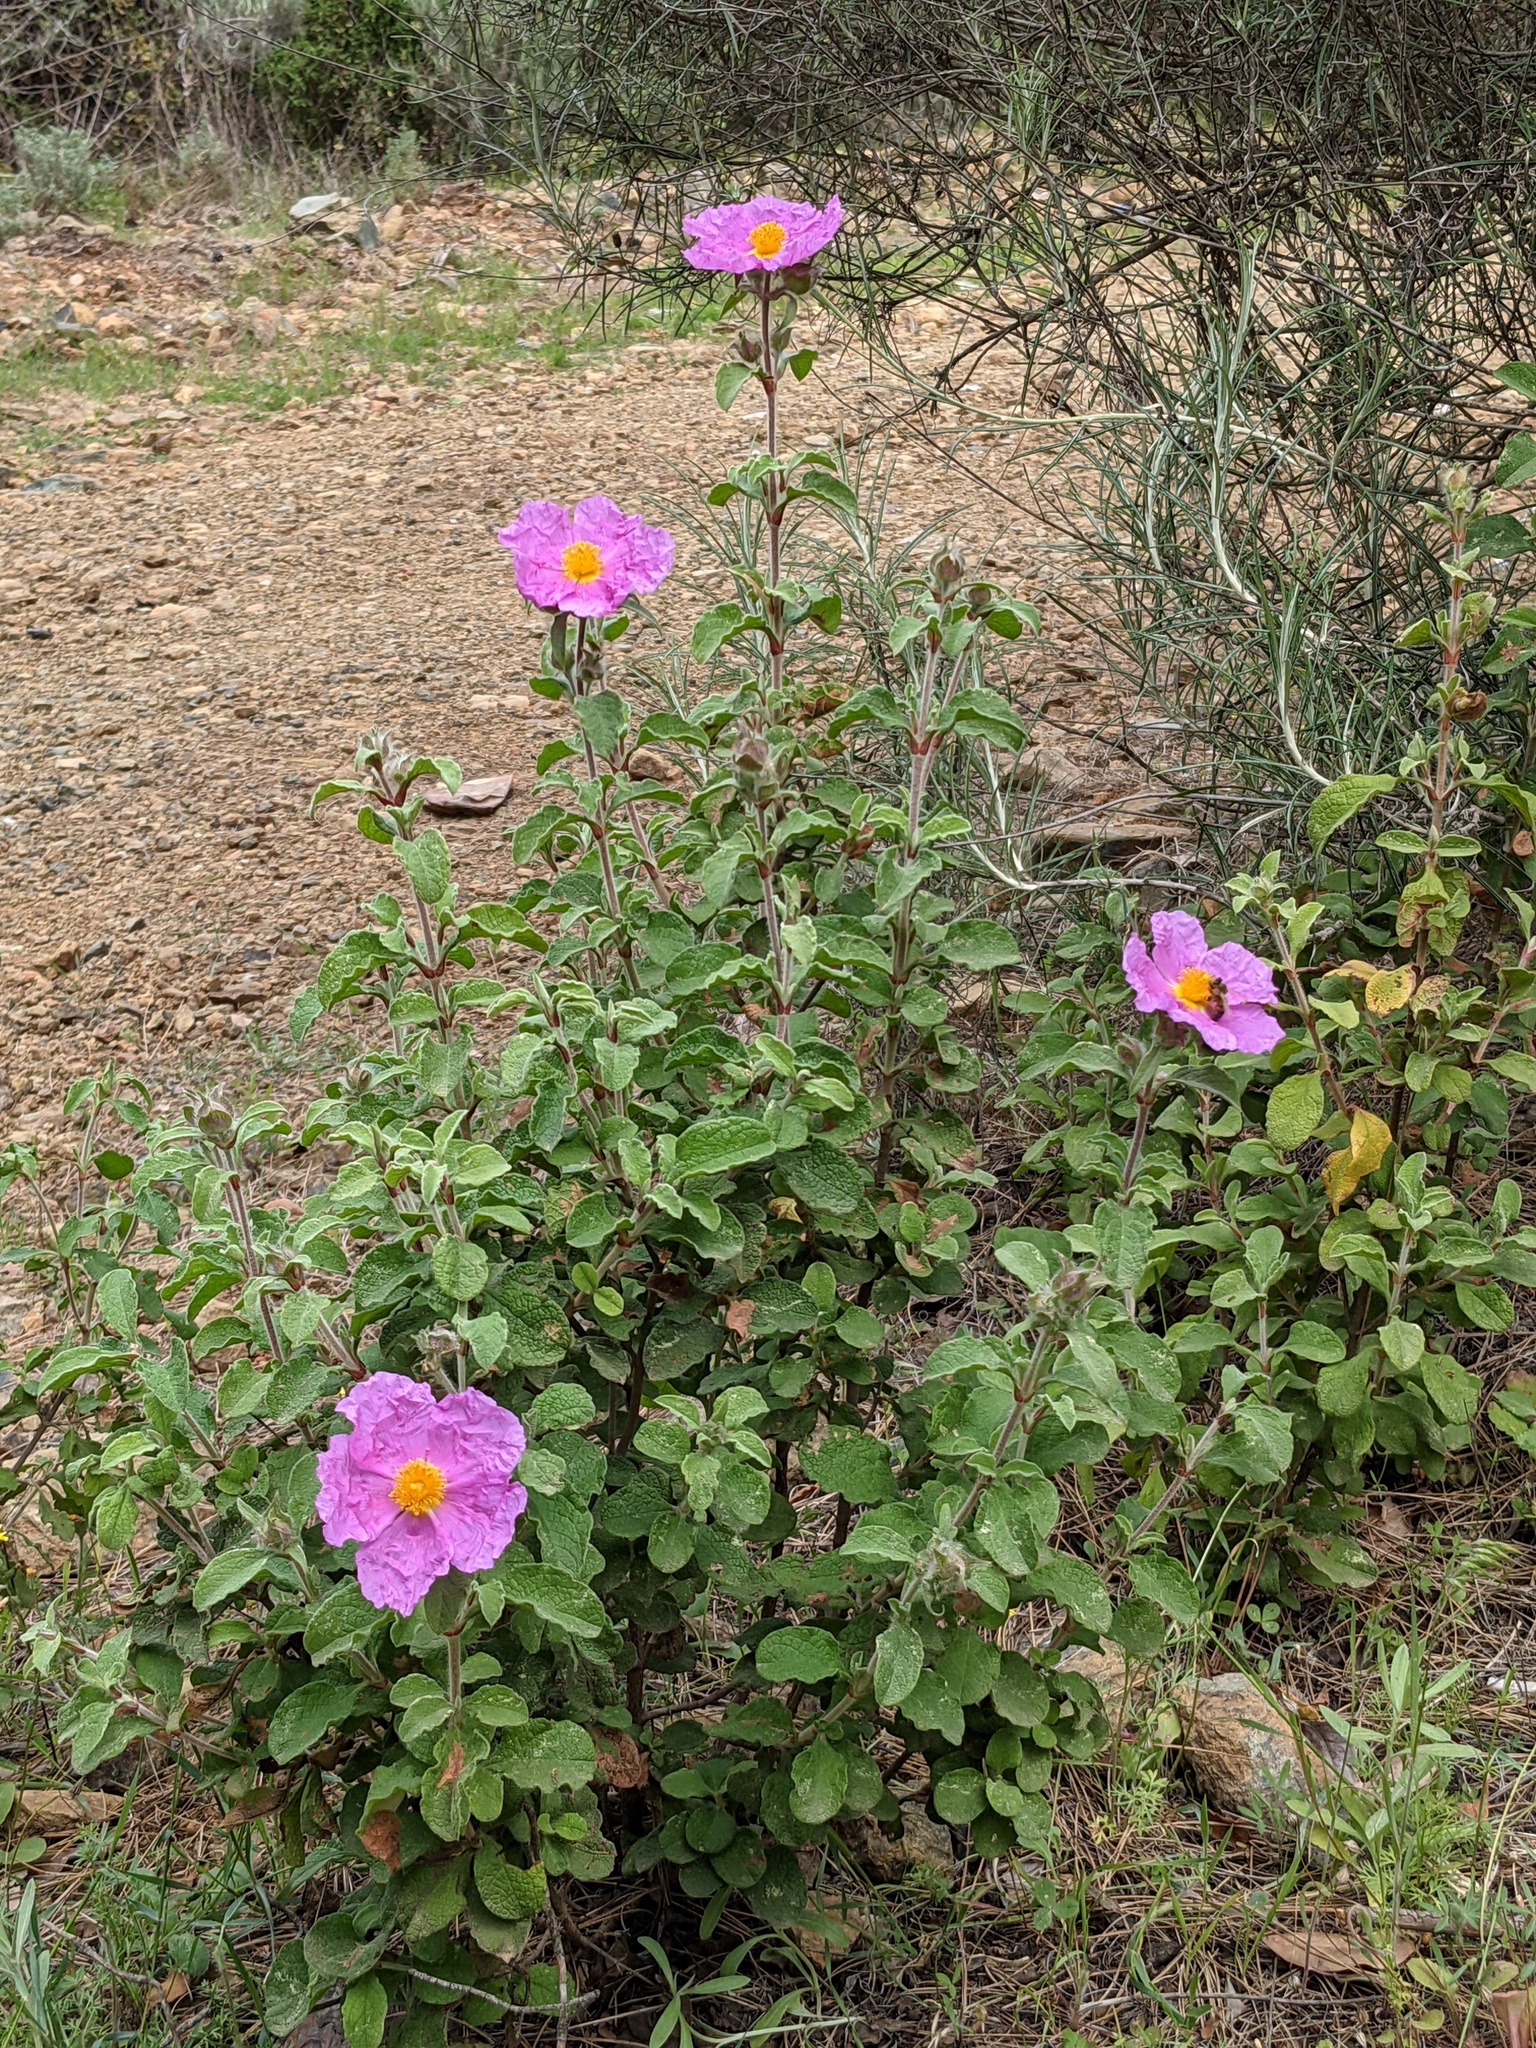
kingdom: Plantae
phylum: Tracheophyta
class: Magnoliopsida
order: Malvales
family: Cistaceae
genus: Cistus
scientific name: Cistus creticus
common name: Cretan rockrose
